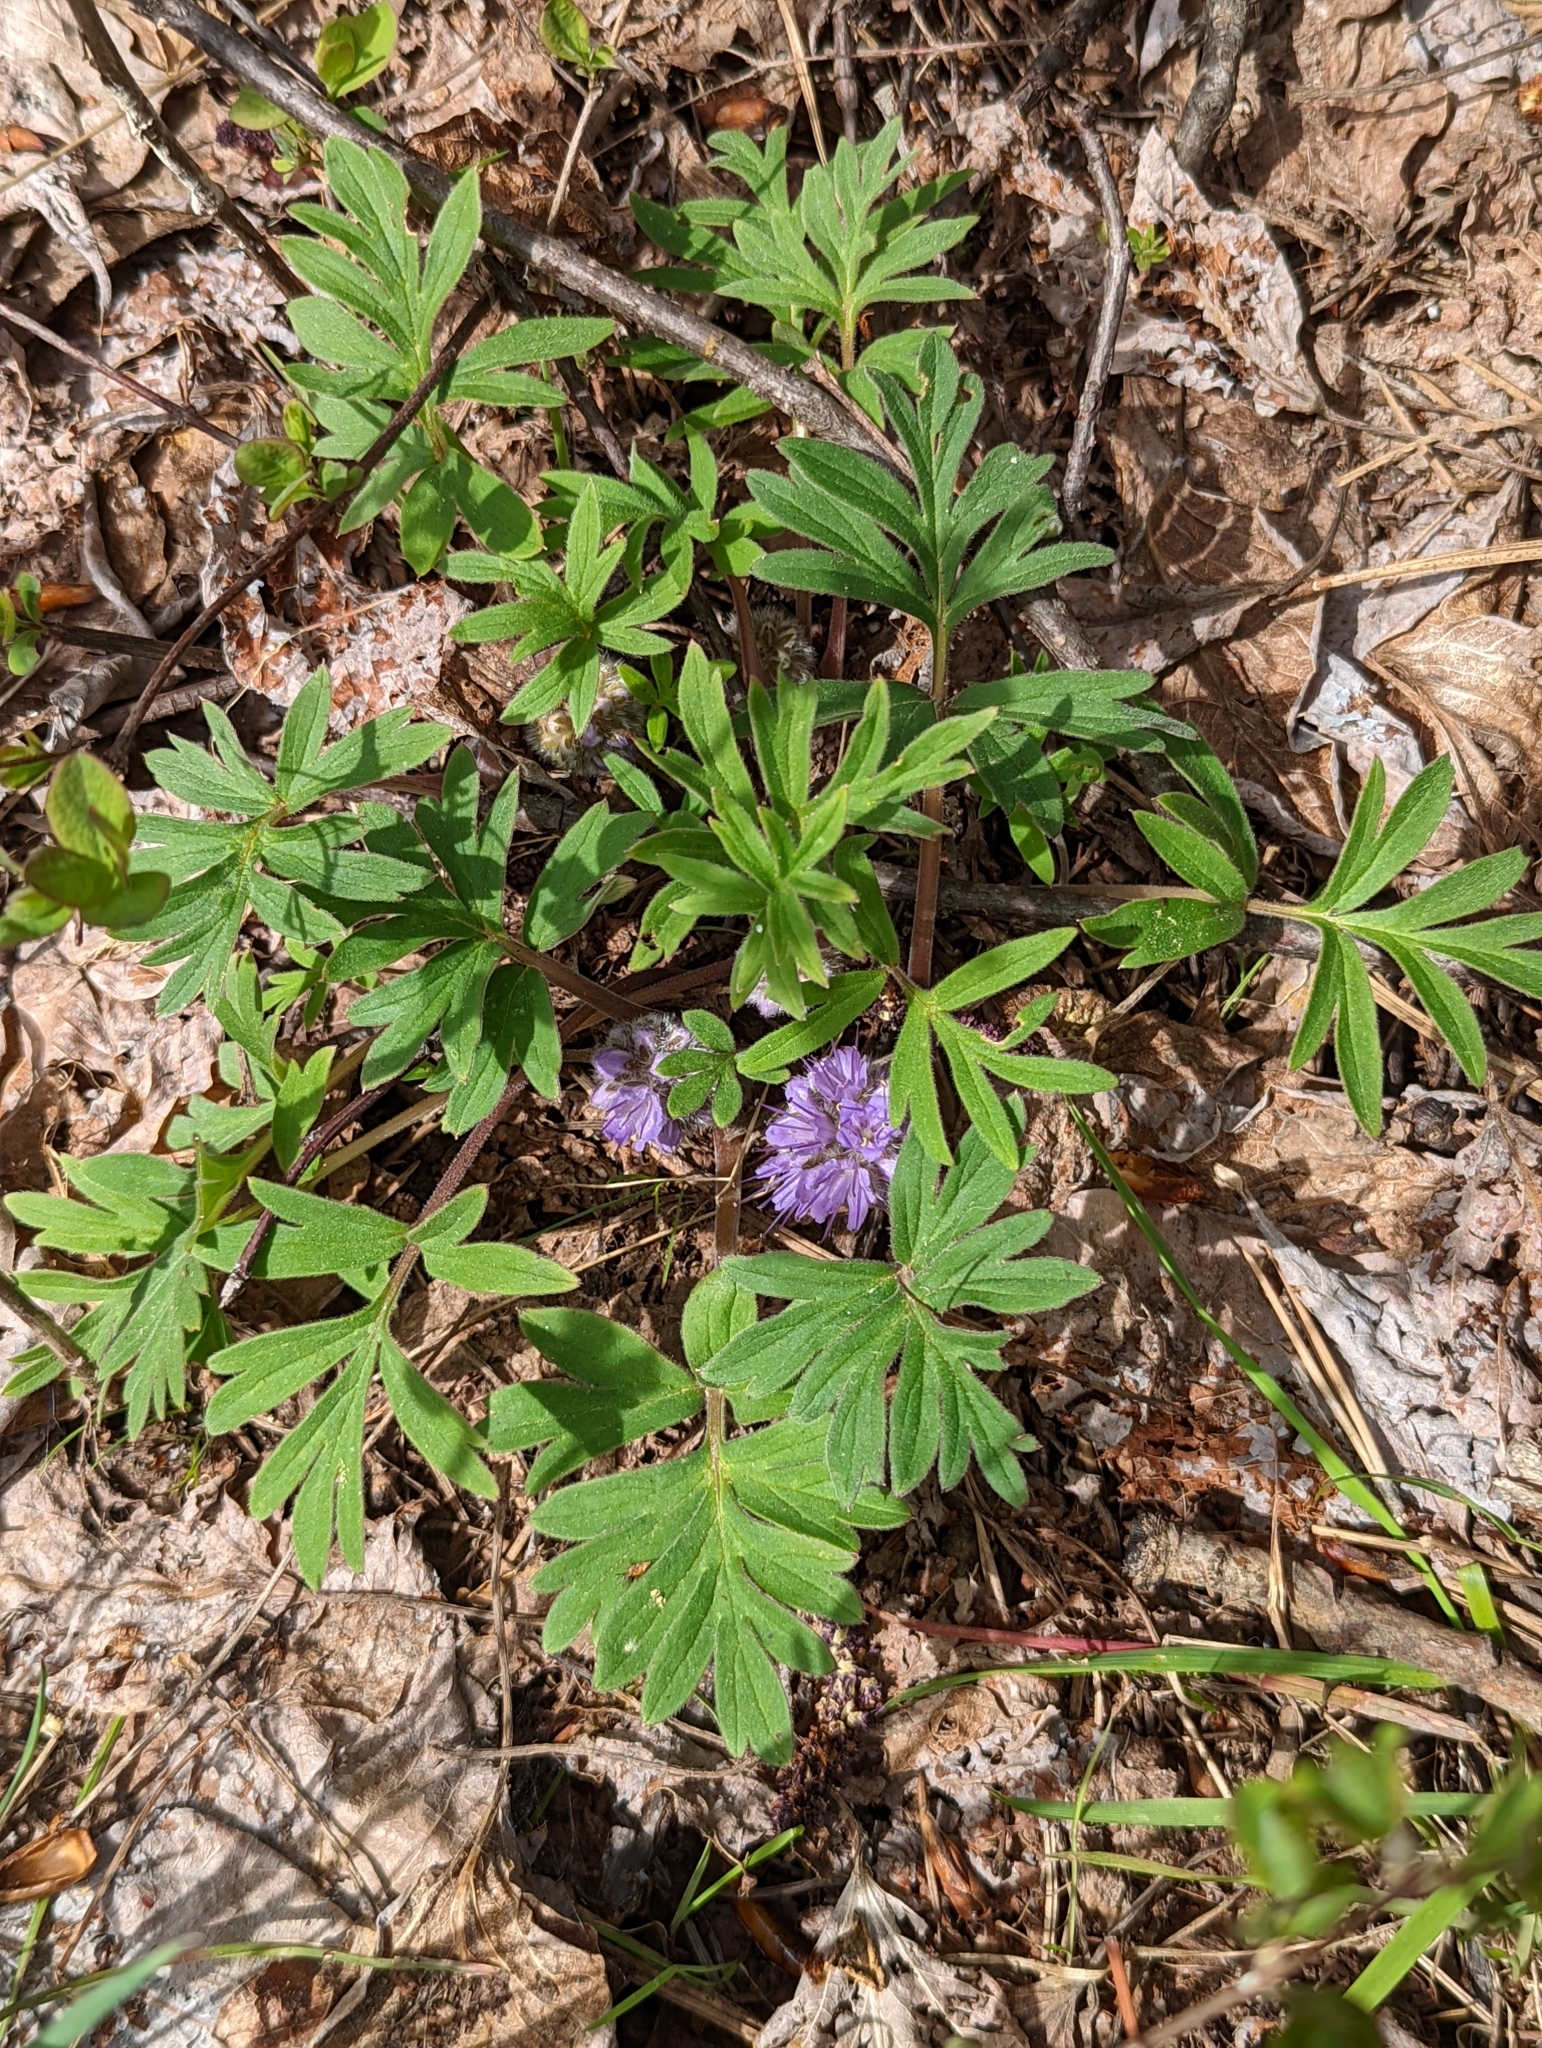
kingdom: Plantae
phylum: Tracheophyta
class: Magnoliopsida
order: Boraginales
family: Hydrophyllaceae
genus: Hydrophyllum
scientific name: Hydrophyllum capitatum
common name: Woollen-breeches
